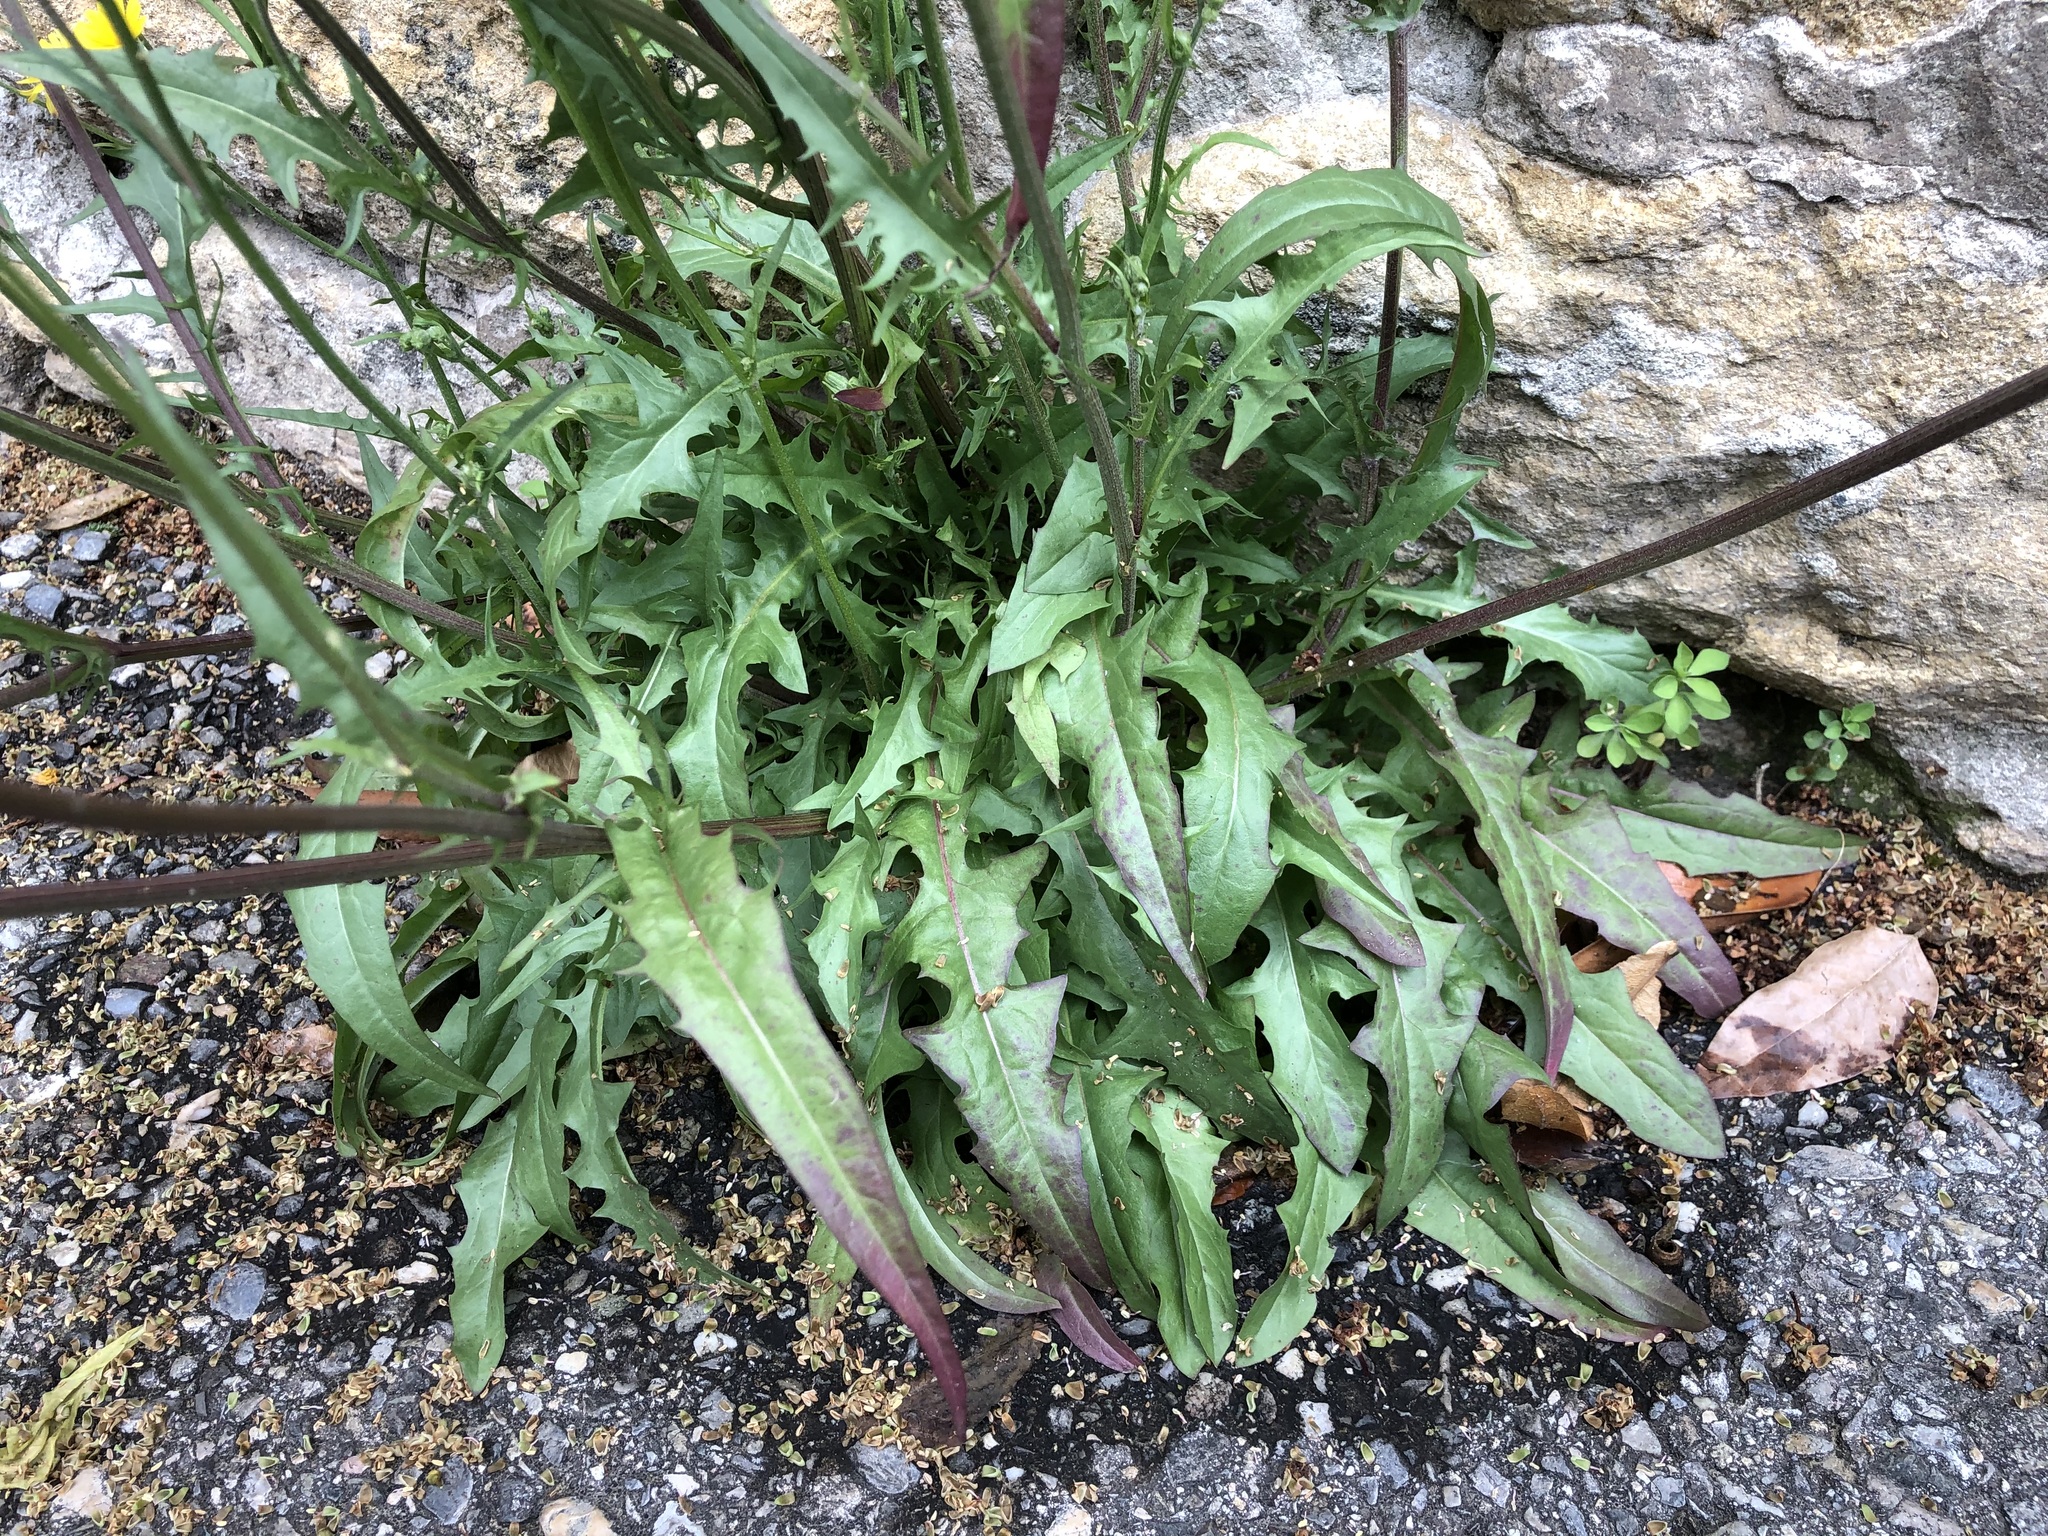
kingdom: Plantae
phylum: Tracheophyta
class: Magnoliopsida
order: Asterales
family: Asteraceae
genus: Crepis
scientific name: Crepis capillaris
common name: Smooth hawksbeard
